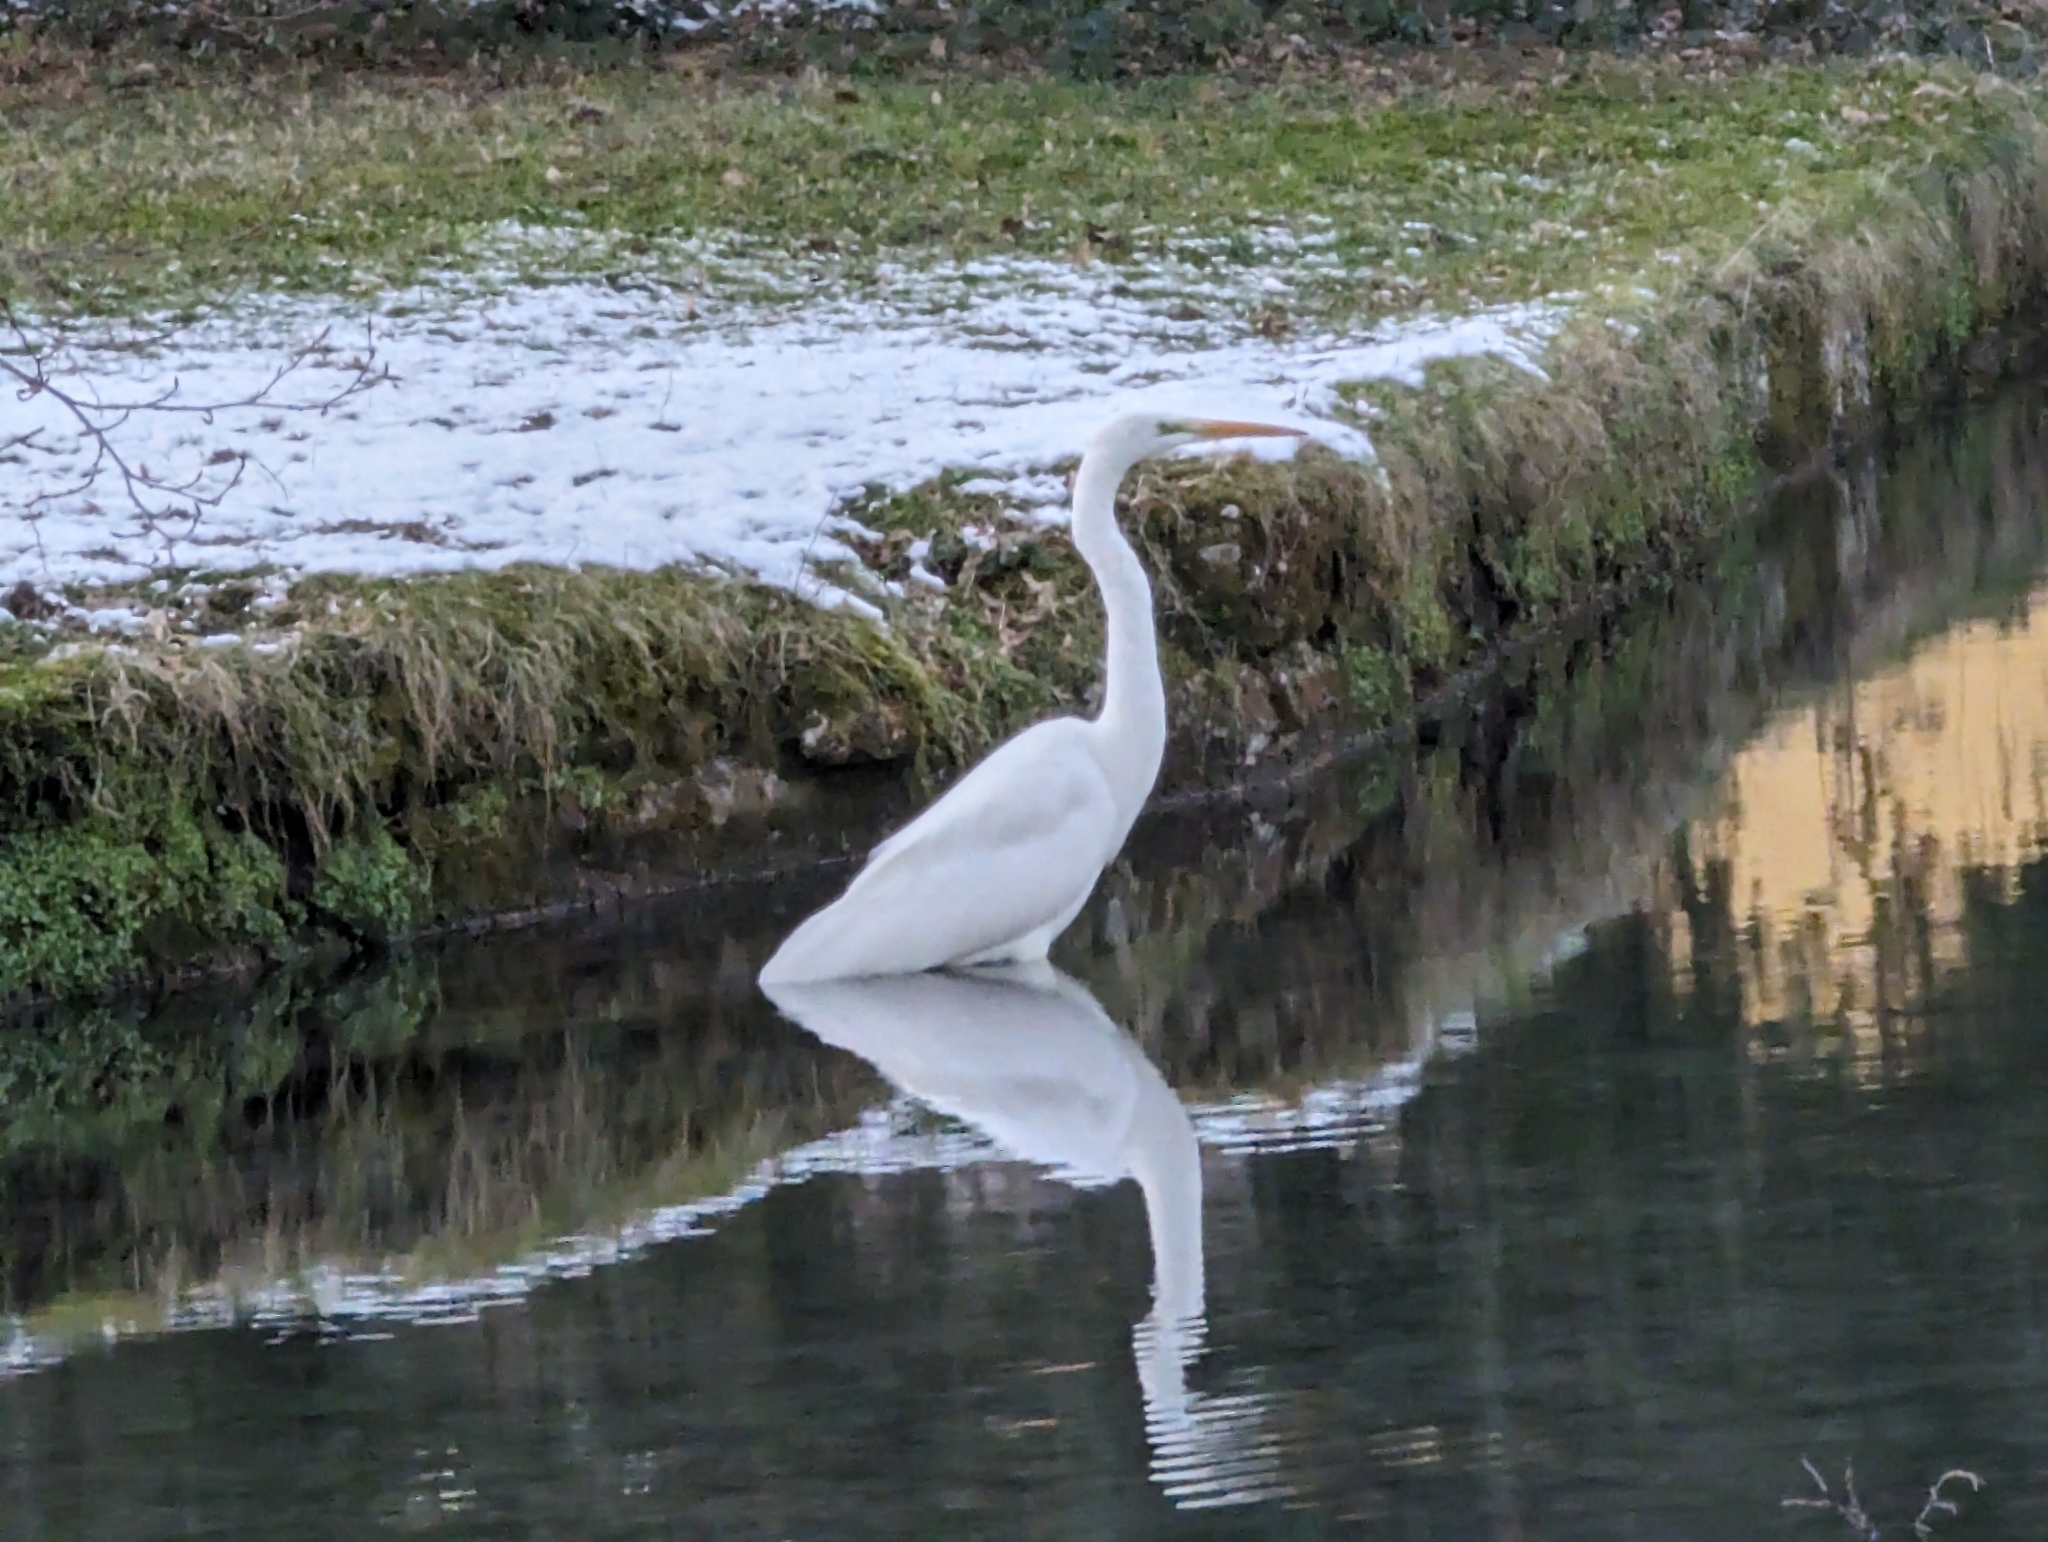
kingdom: Animalia
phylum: Chordata
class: Aves
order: Pelecaniformes
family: Ardeidae
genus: Ardea
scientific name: Ardea alba
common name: Great egret
